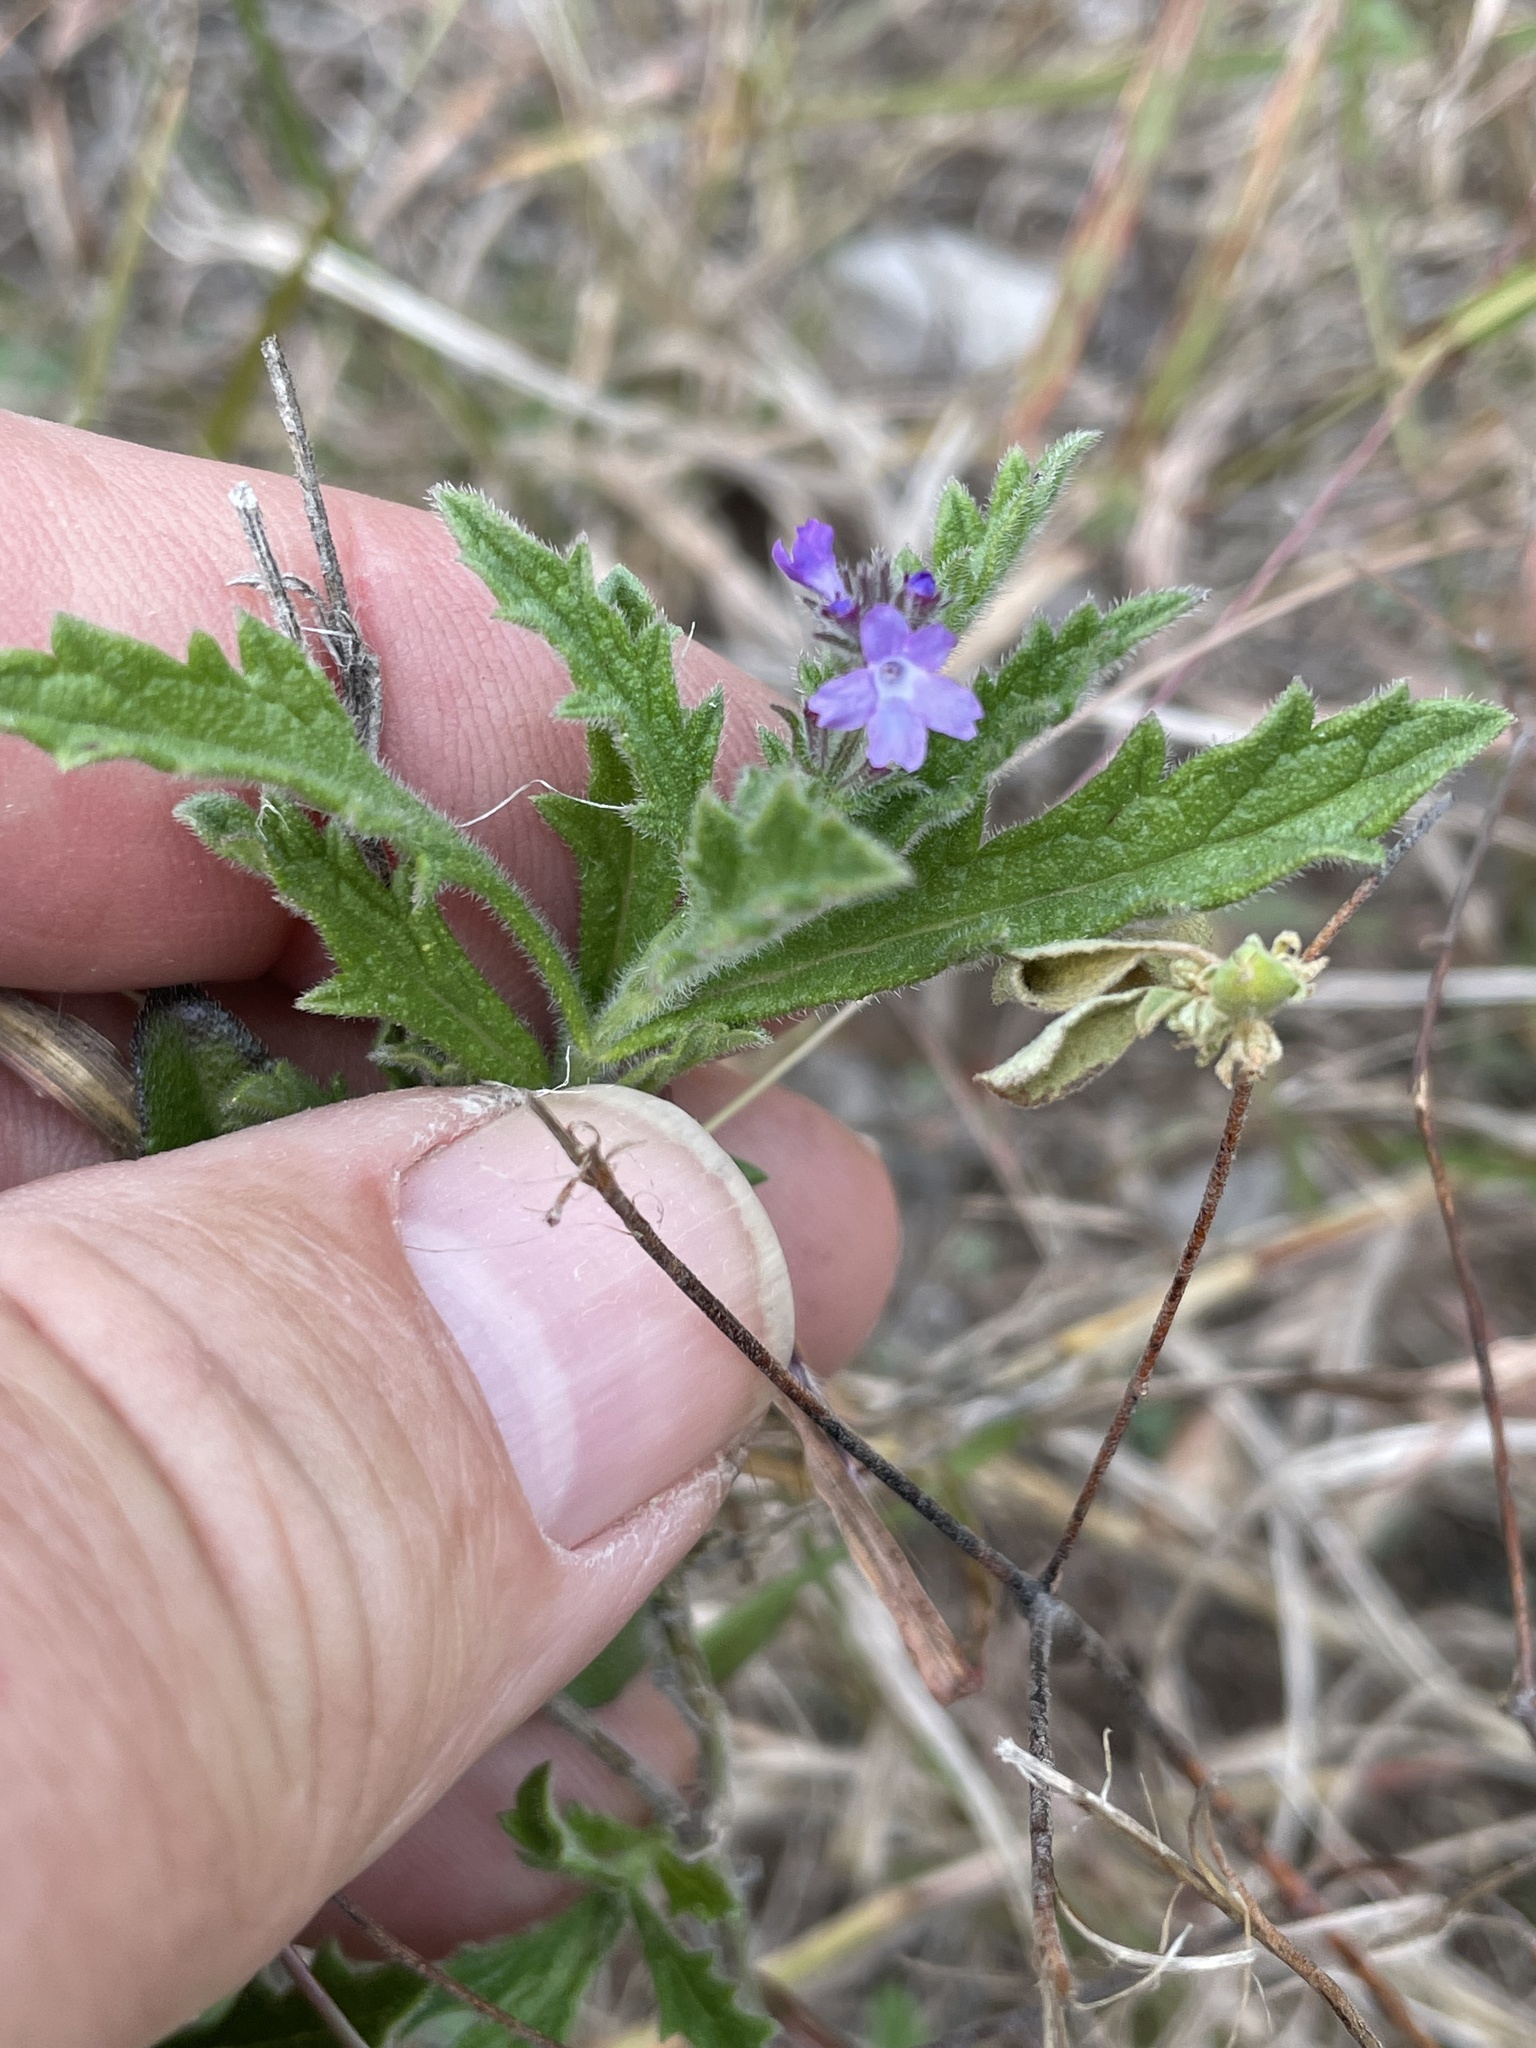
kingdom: Plantae
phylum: Tracheophyta
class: Magnoliopsida
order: Lamiales
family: Verbenaceae
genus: Verbena
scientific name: Verbena canescens
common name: Gray vervain
